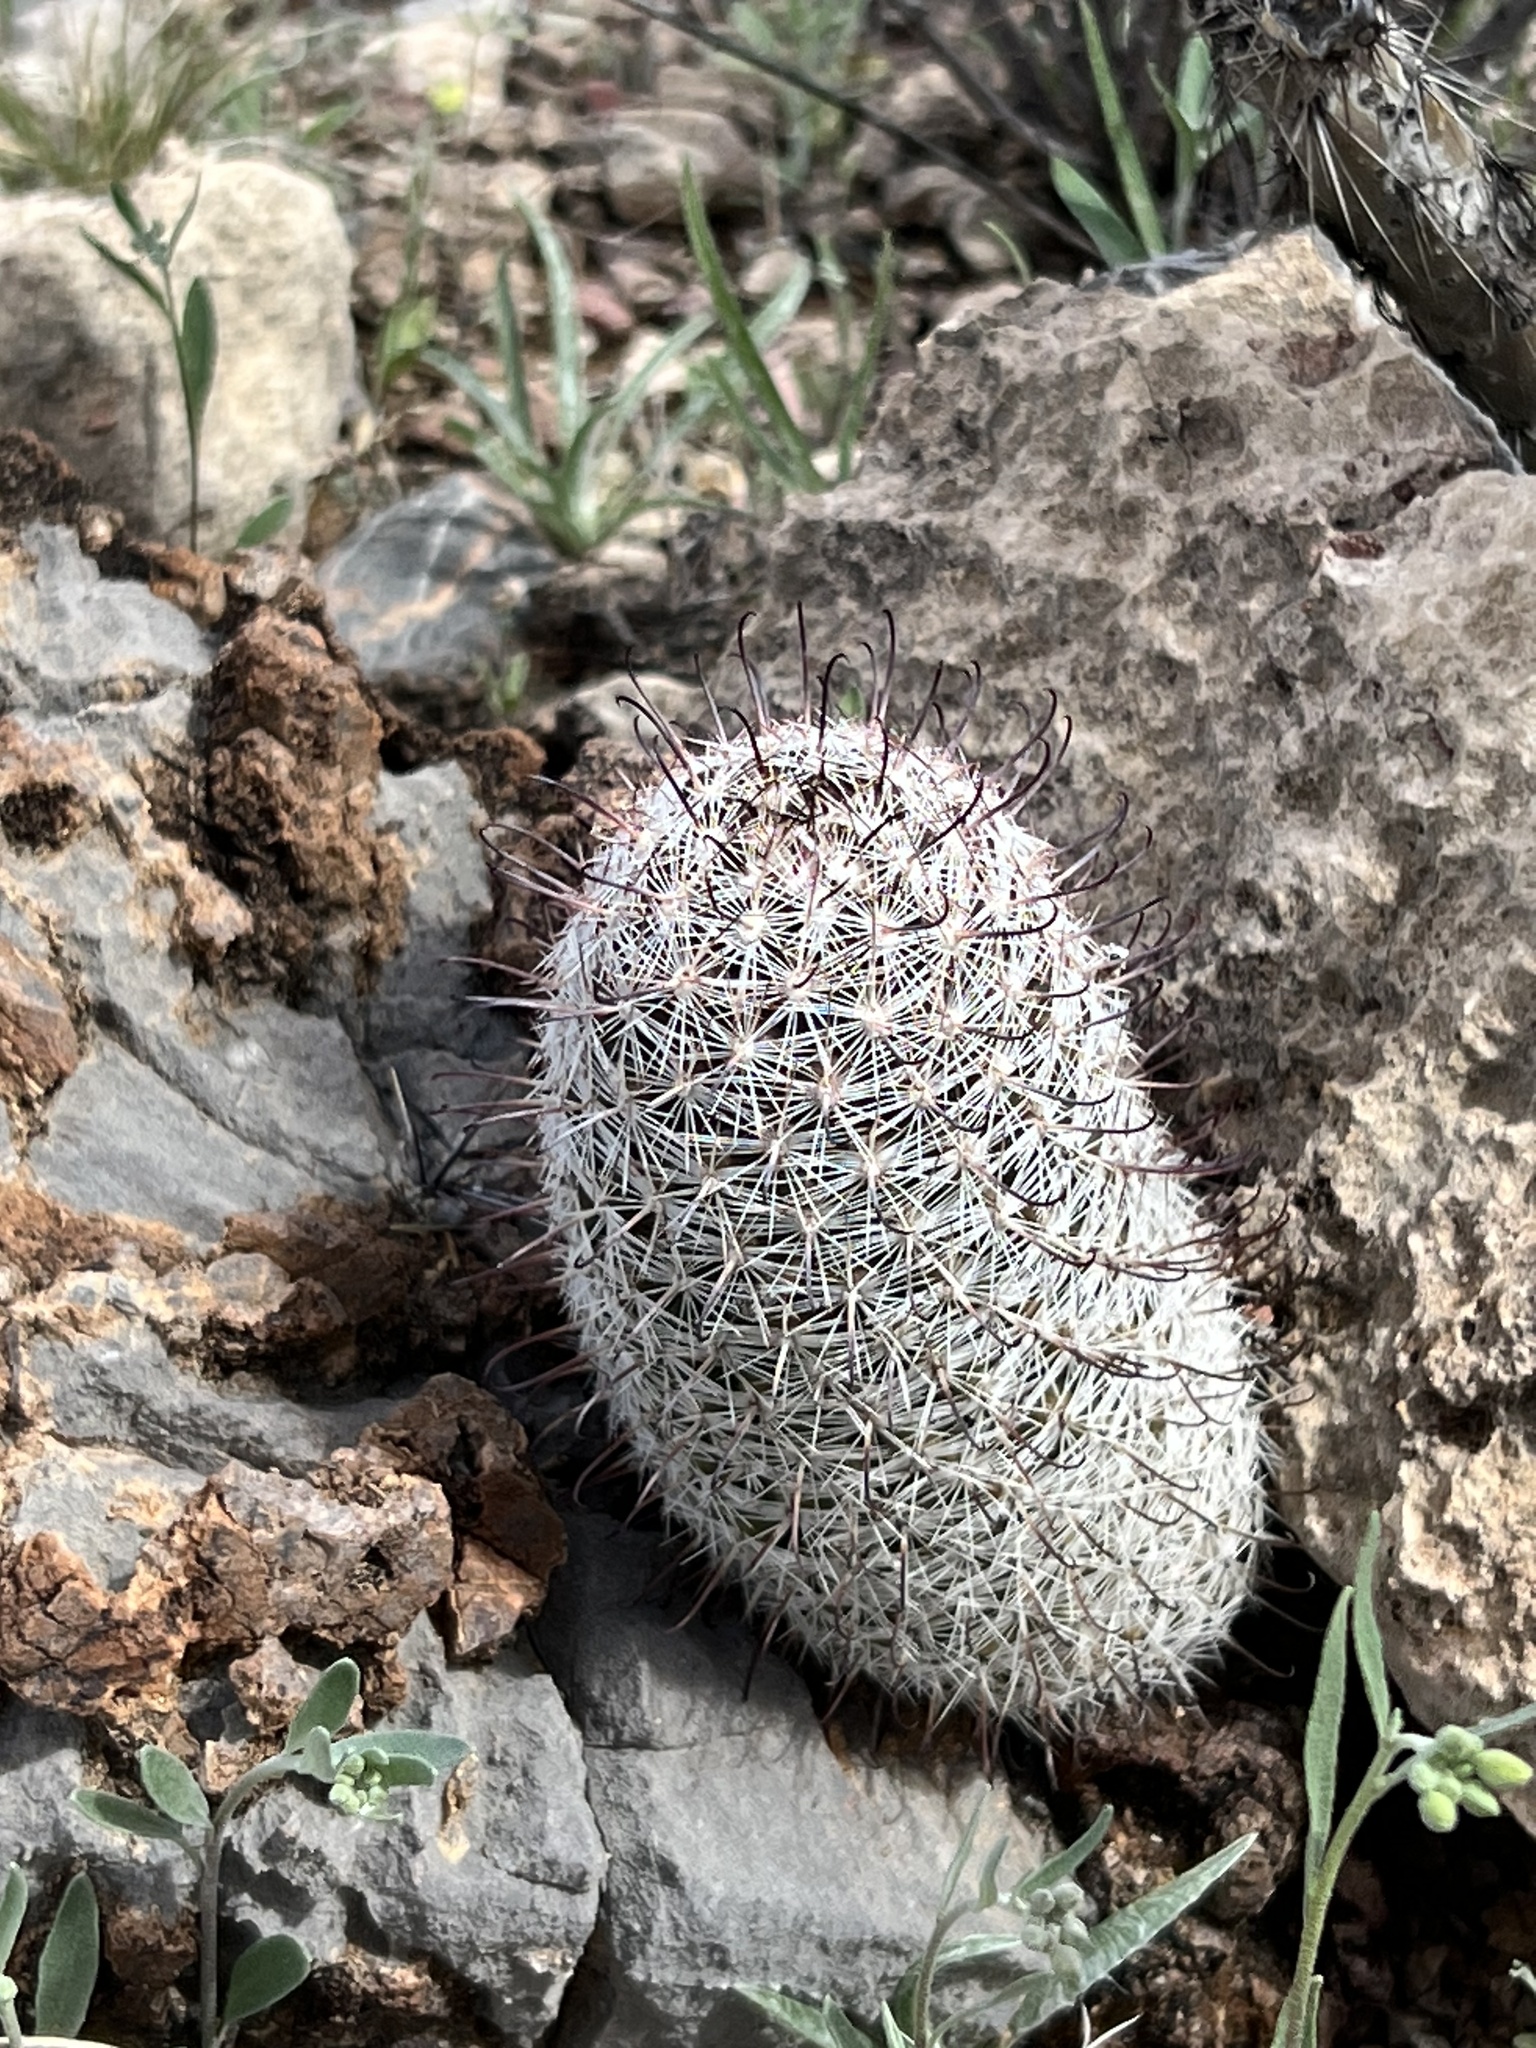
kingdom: Plantae
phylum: Tracheophyta
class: Magnoliopsida
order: Caryophyllales
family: Cactaceae
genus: Cochemiea
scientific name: Cochemiea grahamii
